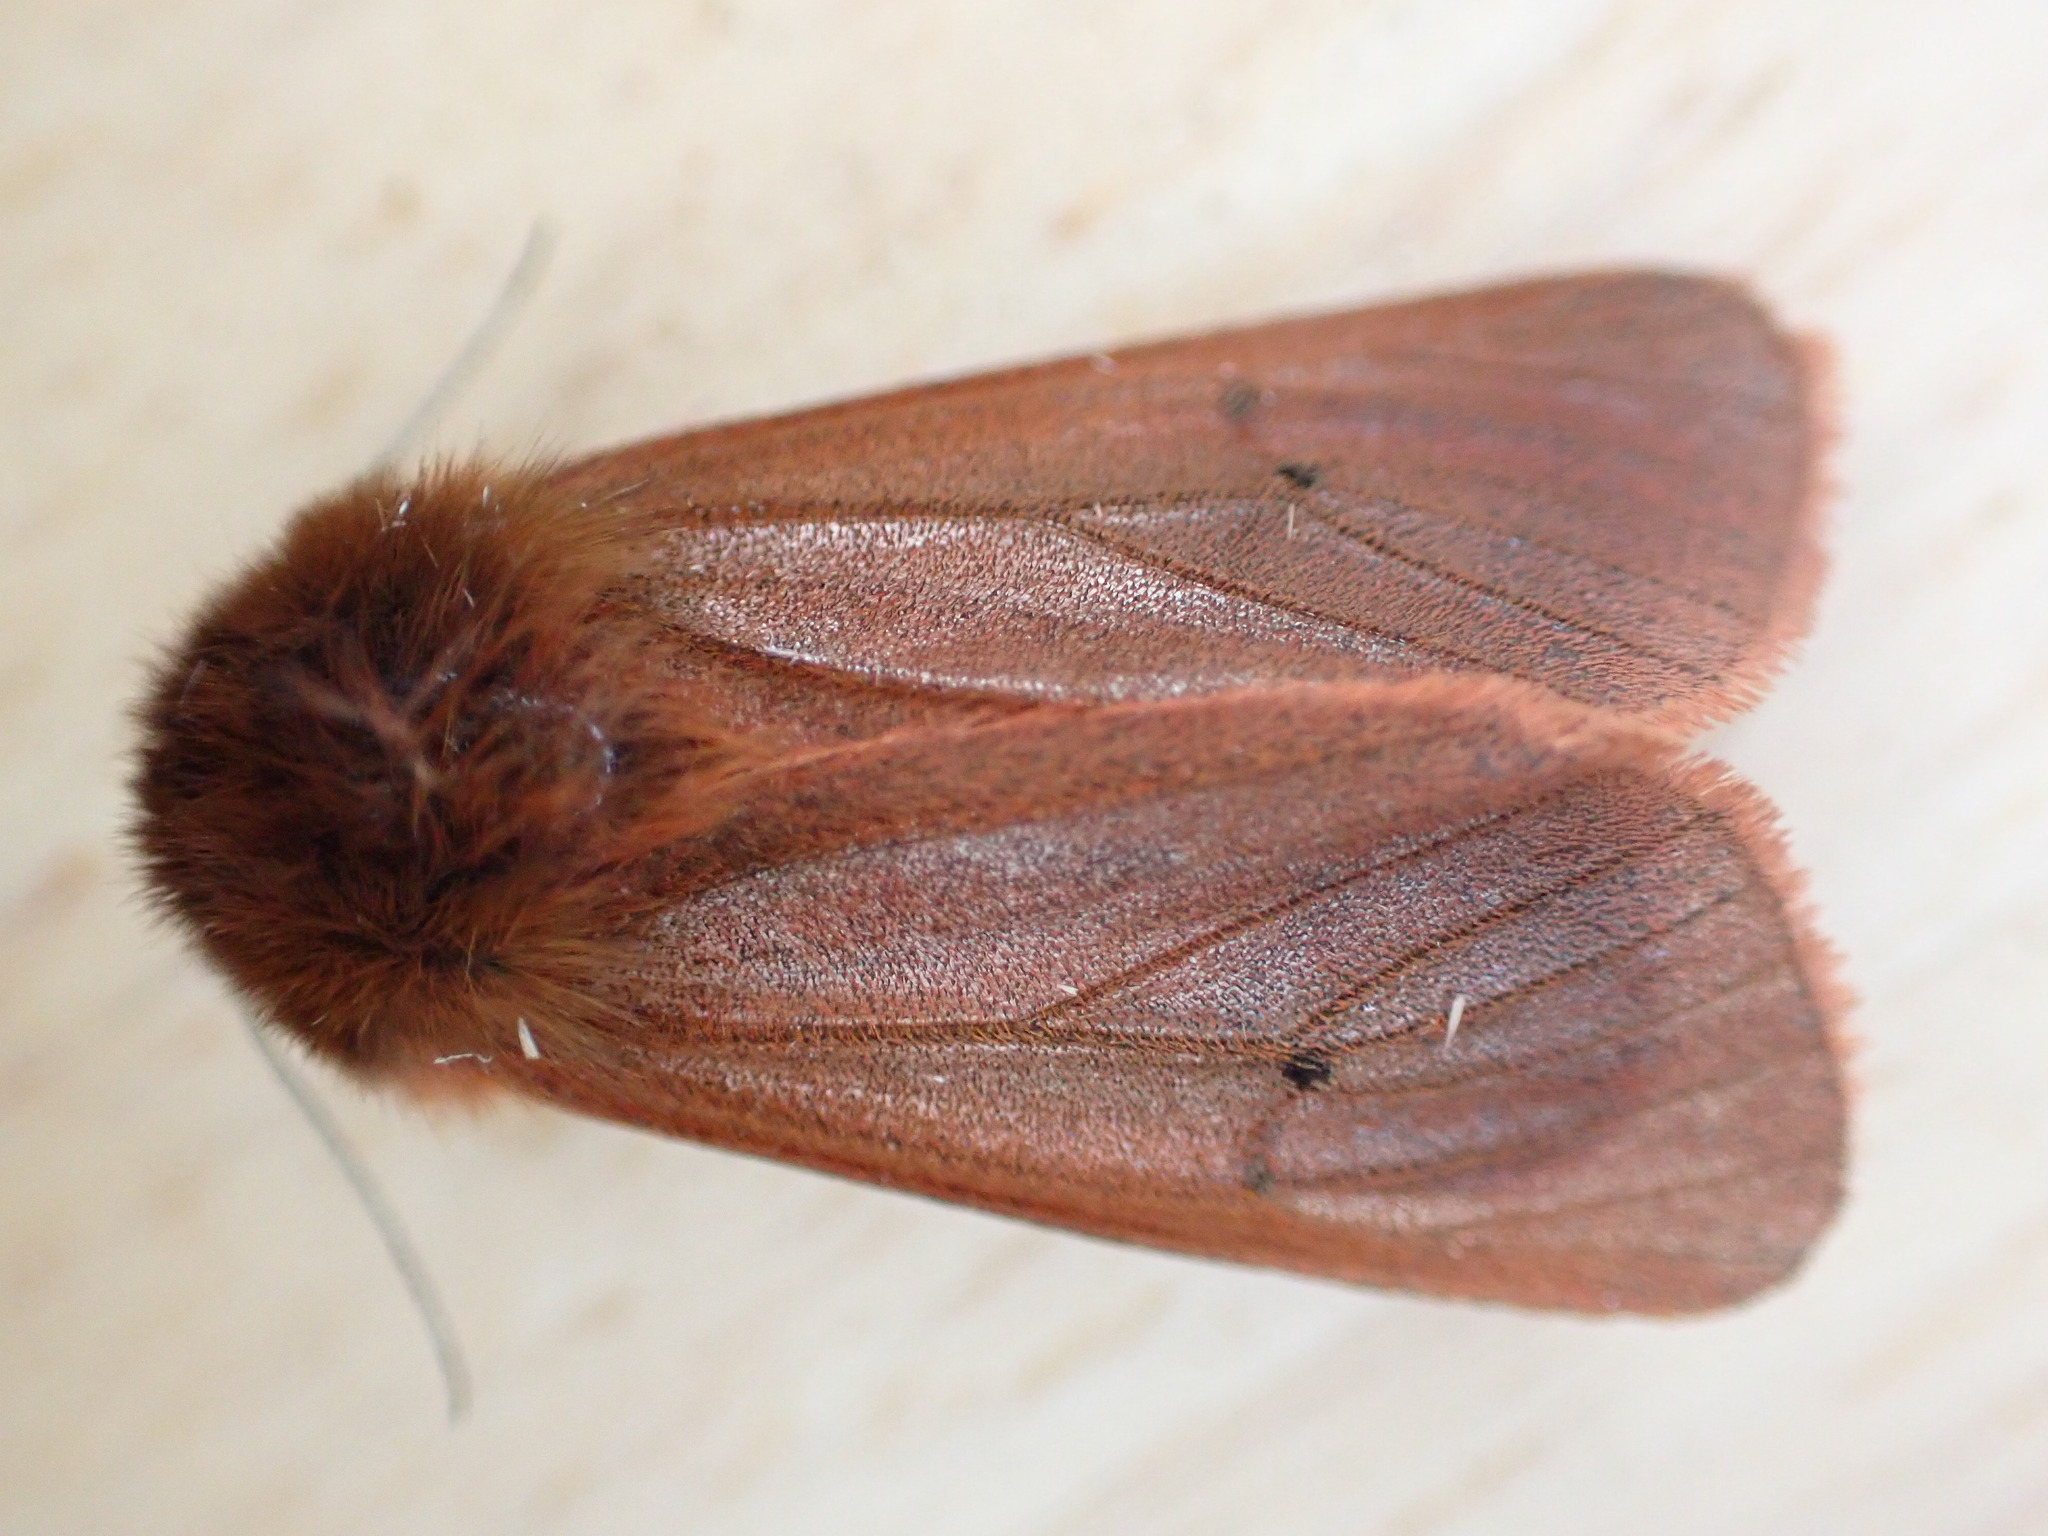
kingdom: Animalia
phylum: Arthropoda
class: Insecta
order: Lepidoptera
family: Erebidae
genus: Phragmatobia
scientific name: Phragmatobia fuliginosa
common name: Ruby tiger
